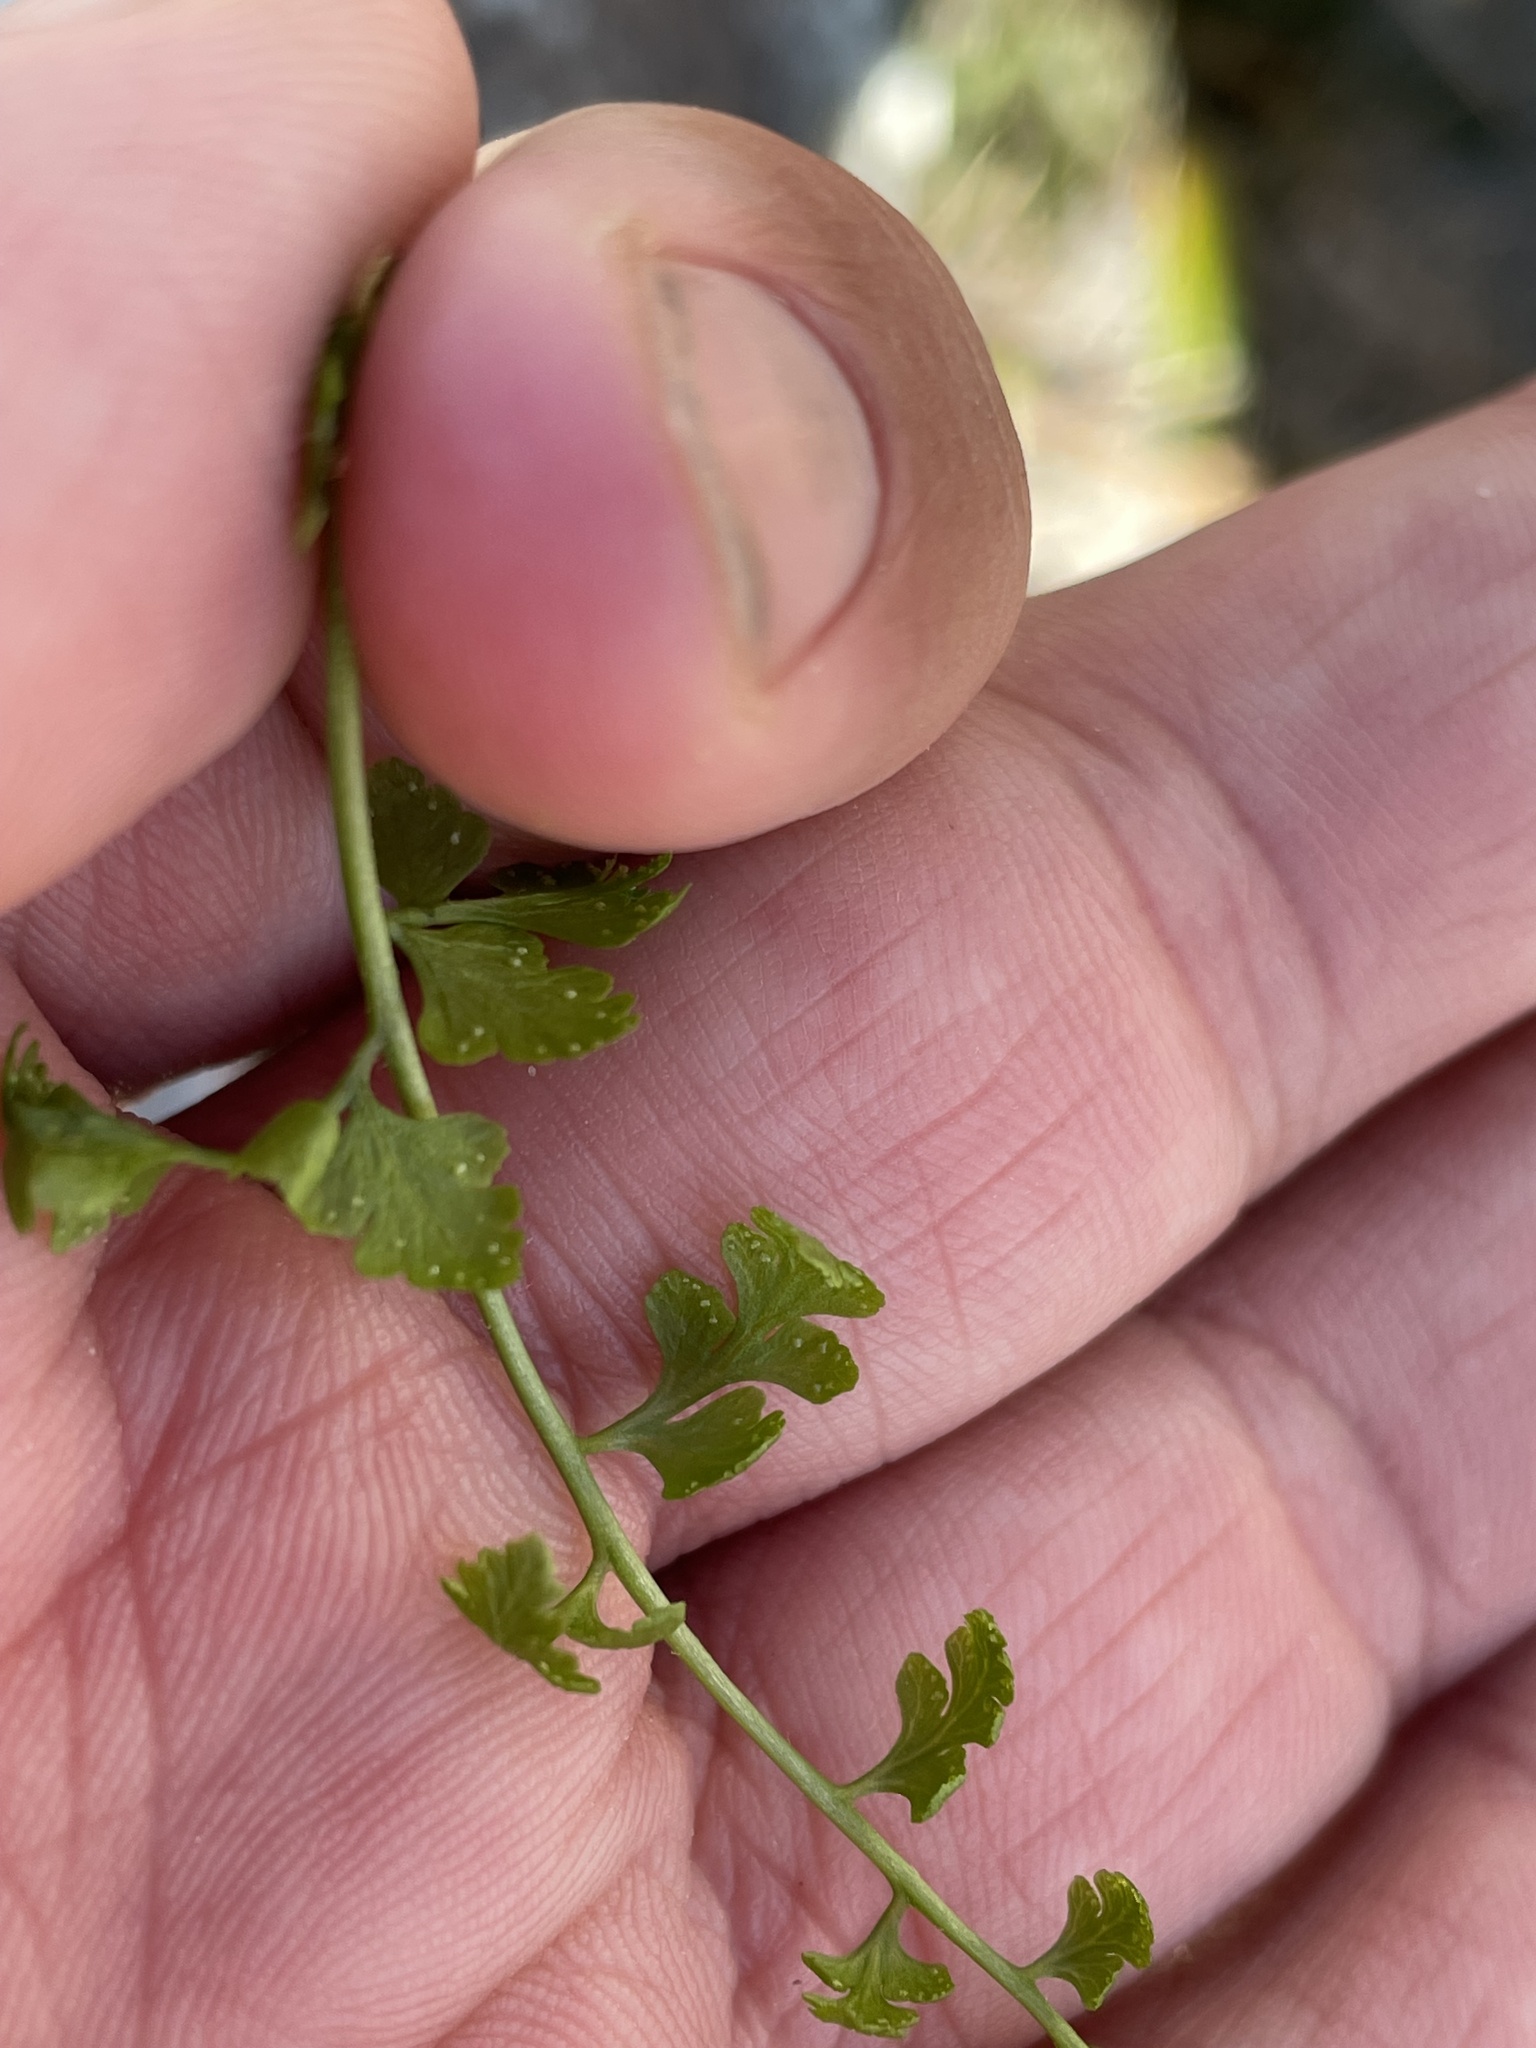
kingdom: Plantae
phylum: Tracheophyta
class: Polypodiopsida
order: Polypodiales
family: Cystopteridaceae
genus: Cystopteris
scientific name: Cystopteris tasmanica
